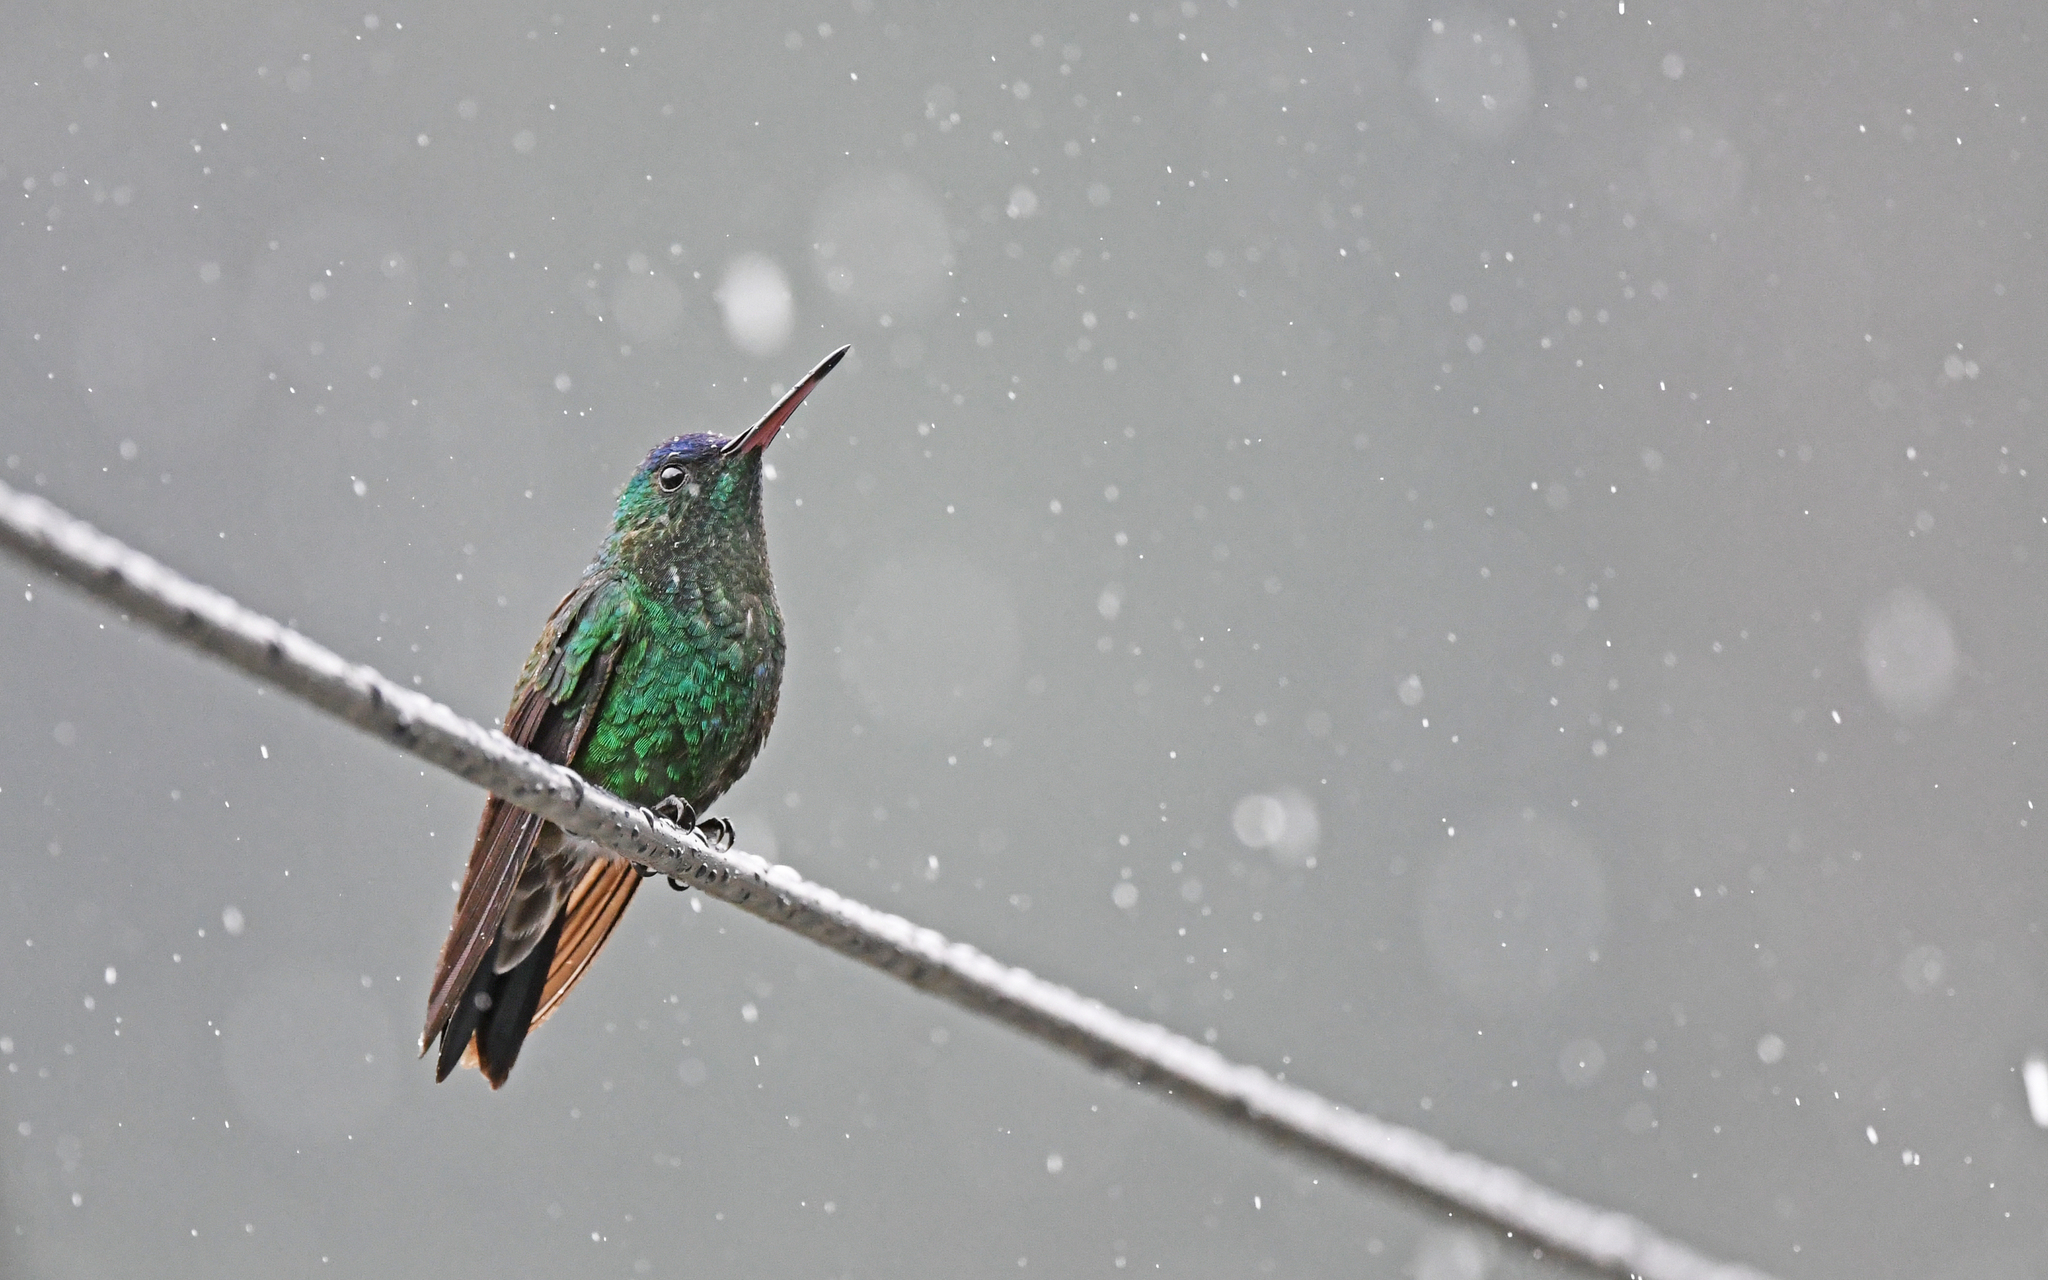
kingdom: Animalia
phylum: Chordata
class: Aves
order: Apodiformes
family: Trochilidae
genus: Saucerottia
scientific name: Saucerottia cyanifrons
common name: Indigo-capped hummingbird
